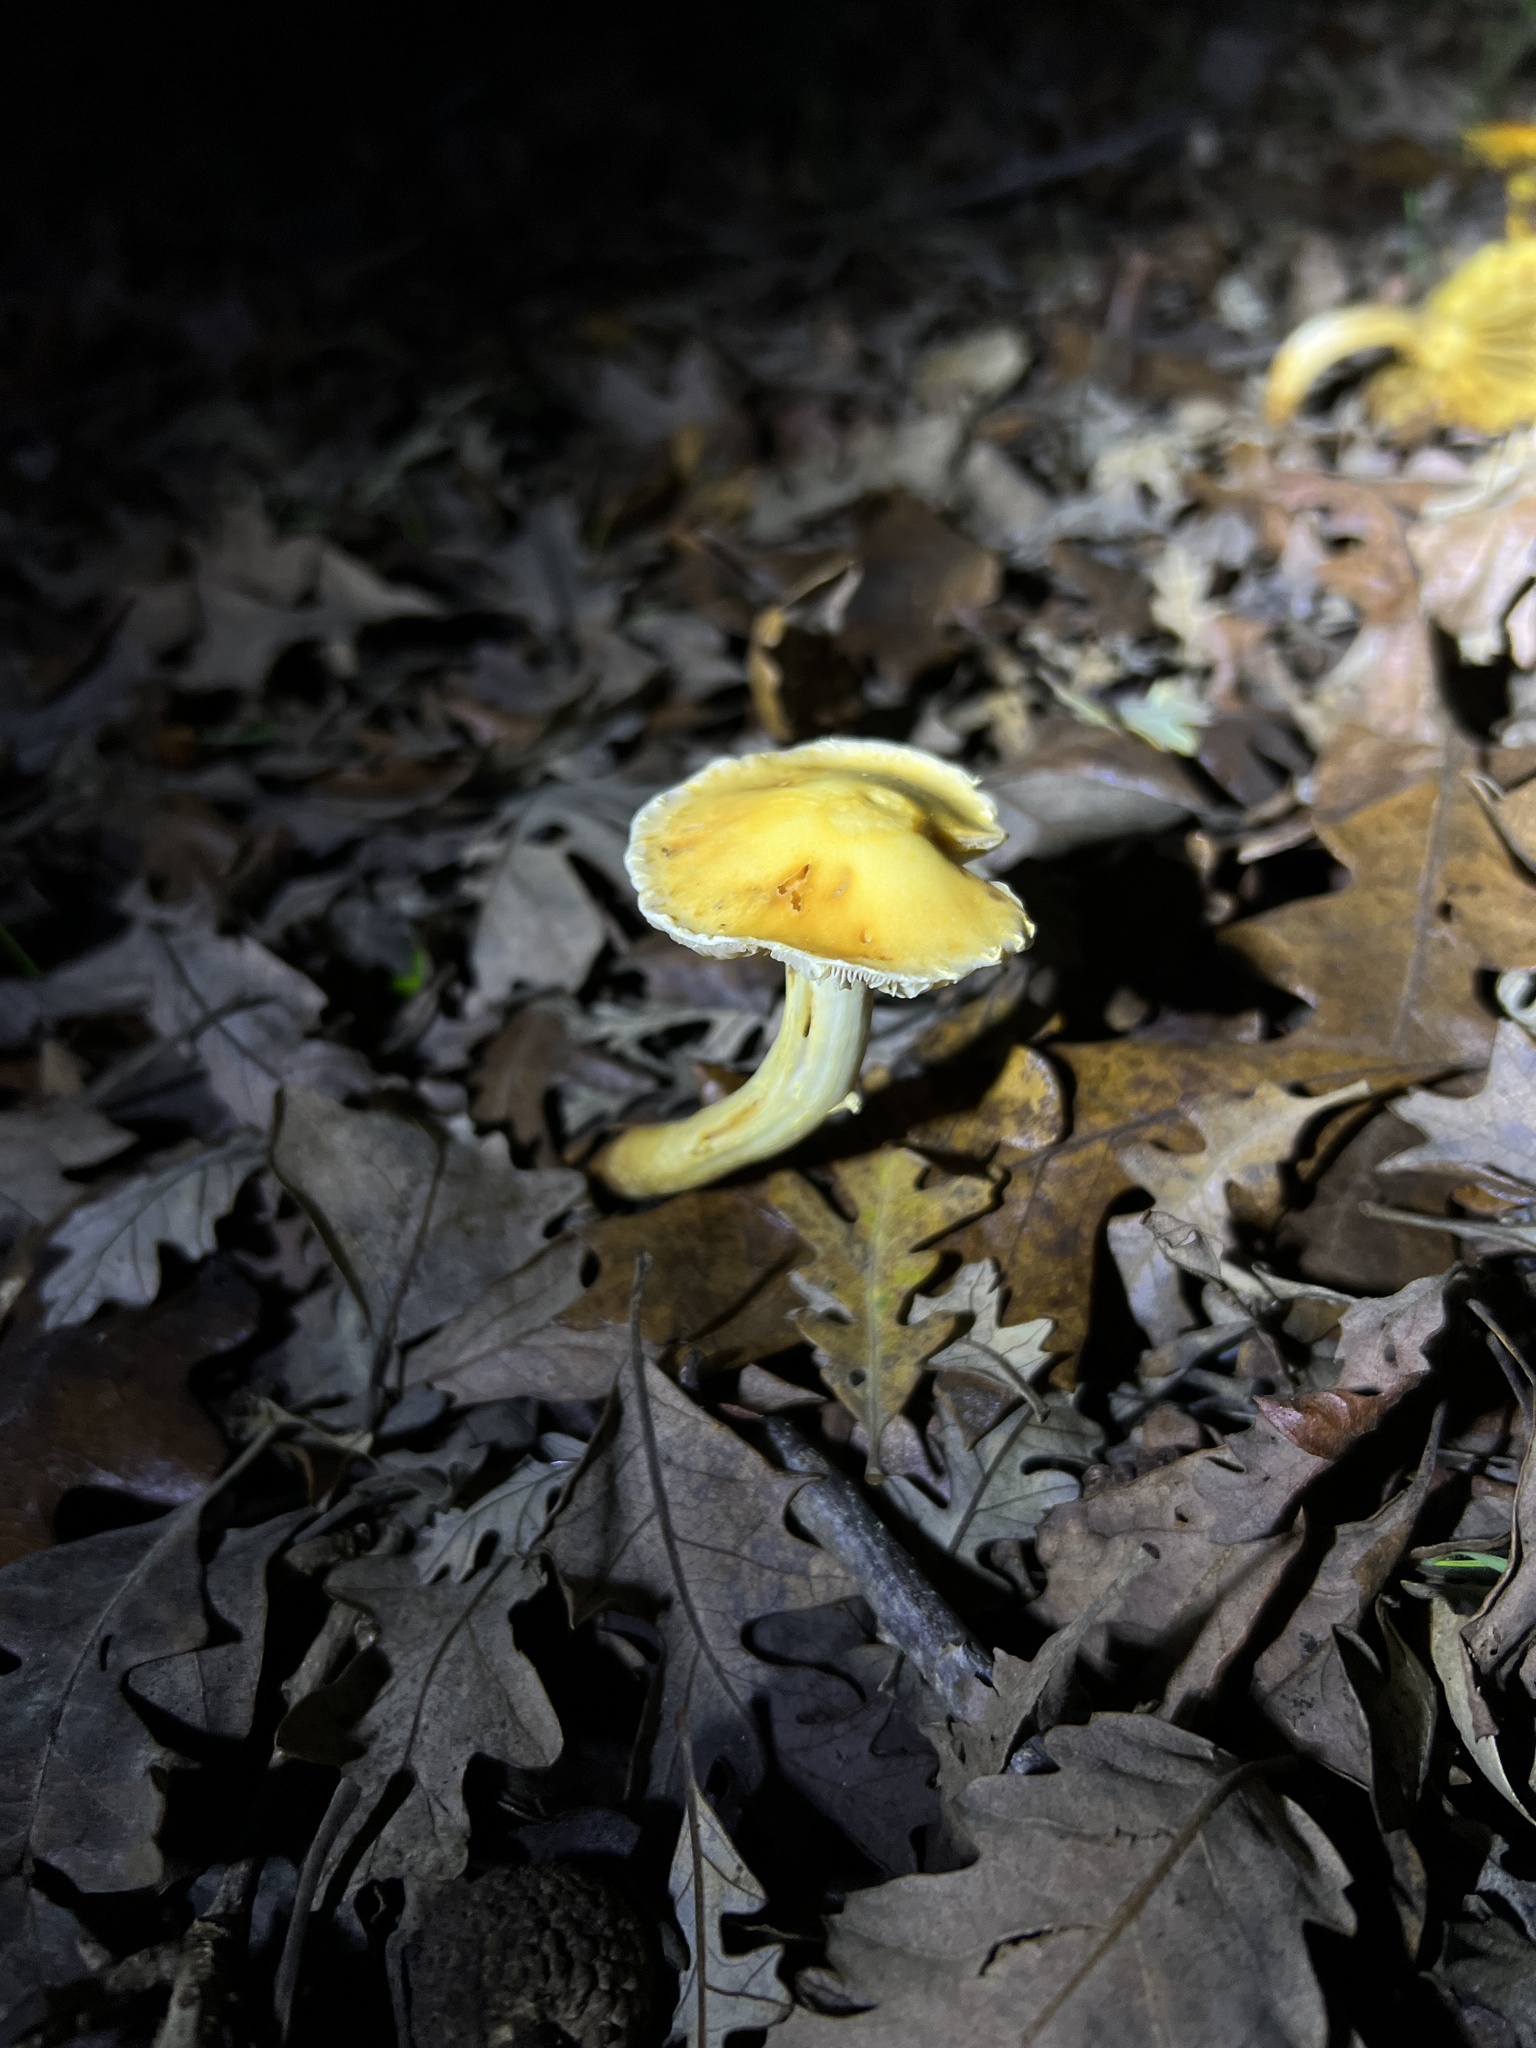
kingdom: Fungi
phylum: Basidiomycota
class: Agaricomycetes
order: Agaricales
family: Strophariaceae
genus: Leratiomyces
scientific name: Leratiomyces percevalii
